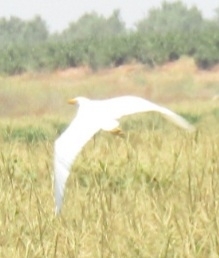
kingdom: Animalia
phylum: Chordata
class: Aves
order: Pelecaniformes
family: Ardeidae
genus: Bubulcus
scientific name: Bubulcus ibis
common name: Cattle egret
